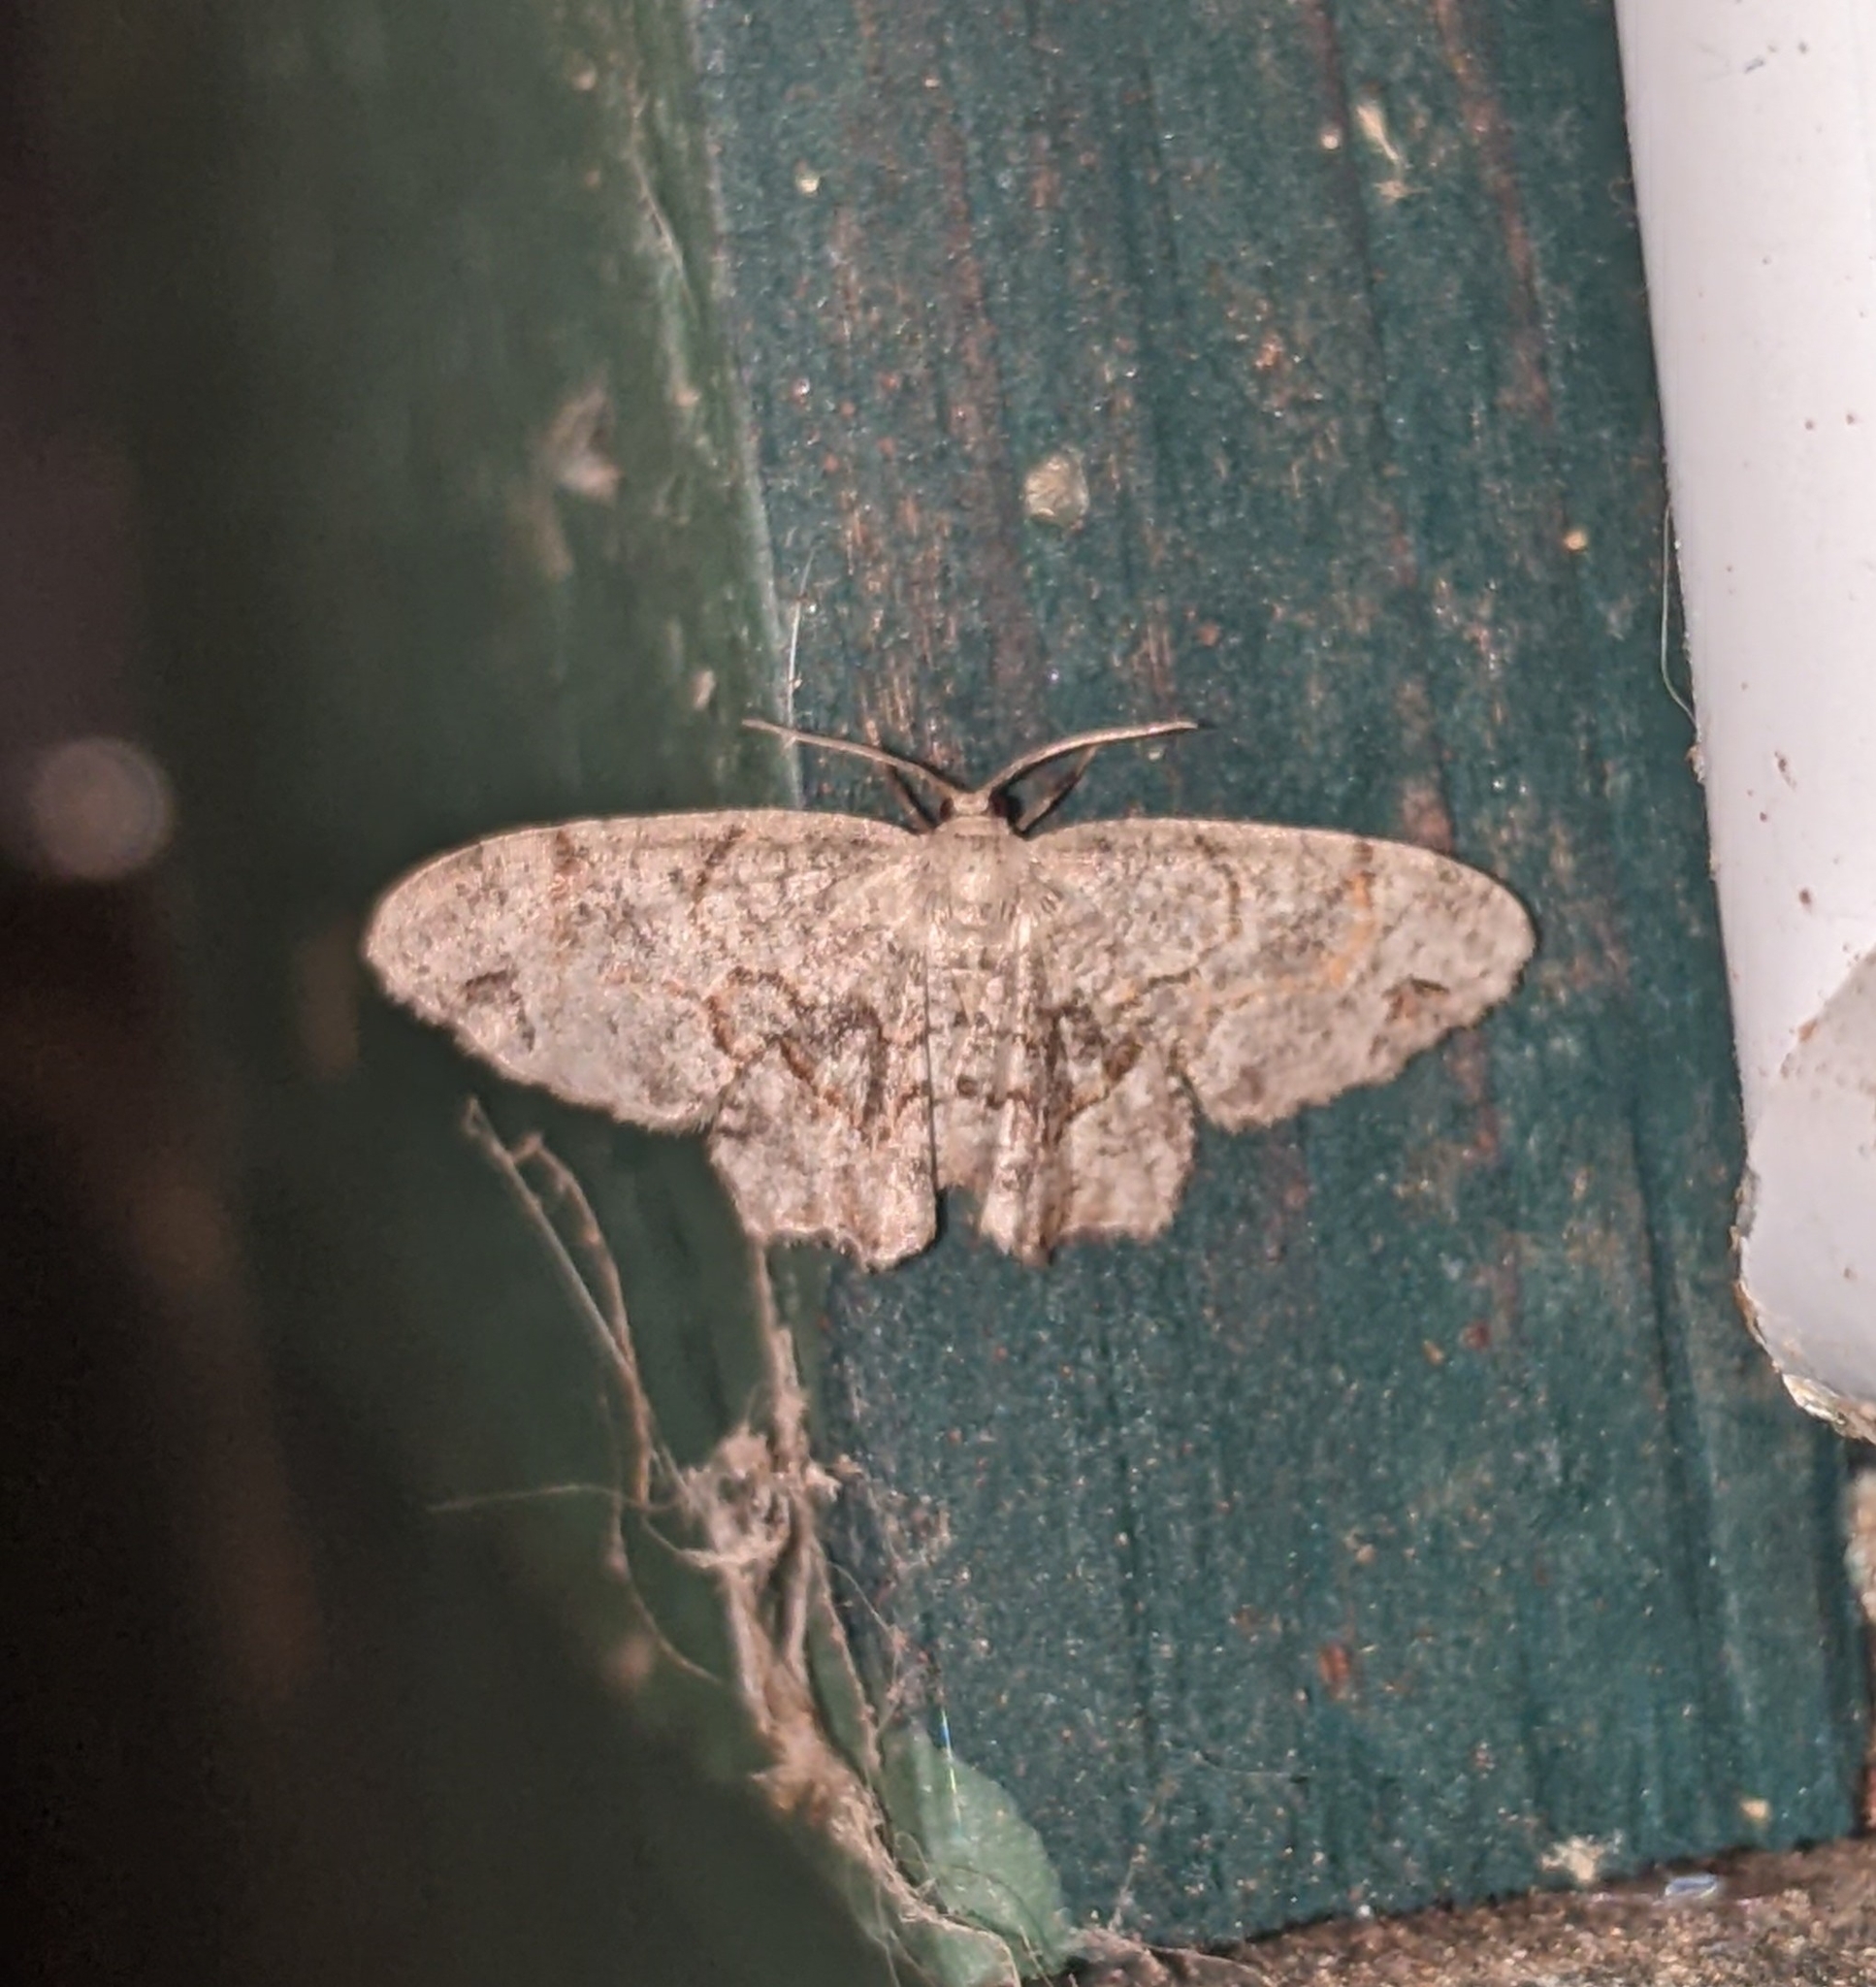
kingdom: Animalia
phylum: Arthropoda
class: Insecta
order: Lepidoptera
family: Uraniidae
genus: Epiplema
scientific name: Epiplema Callizzia amorata
